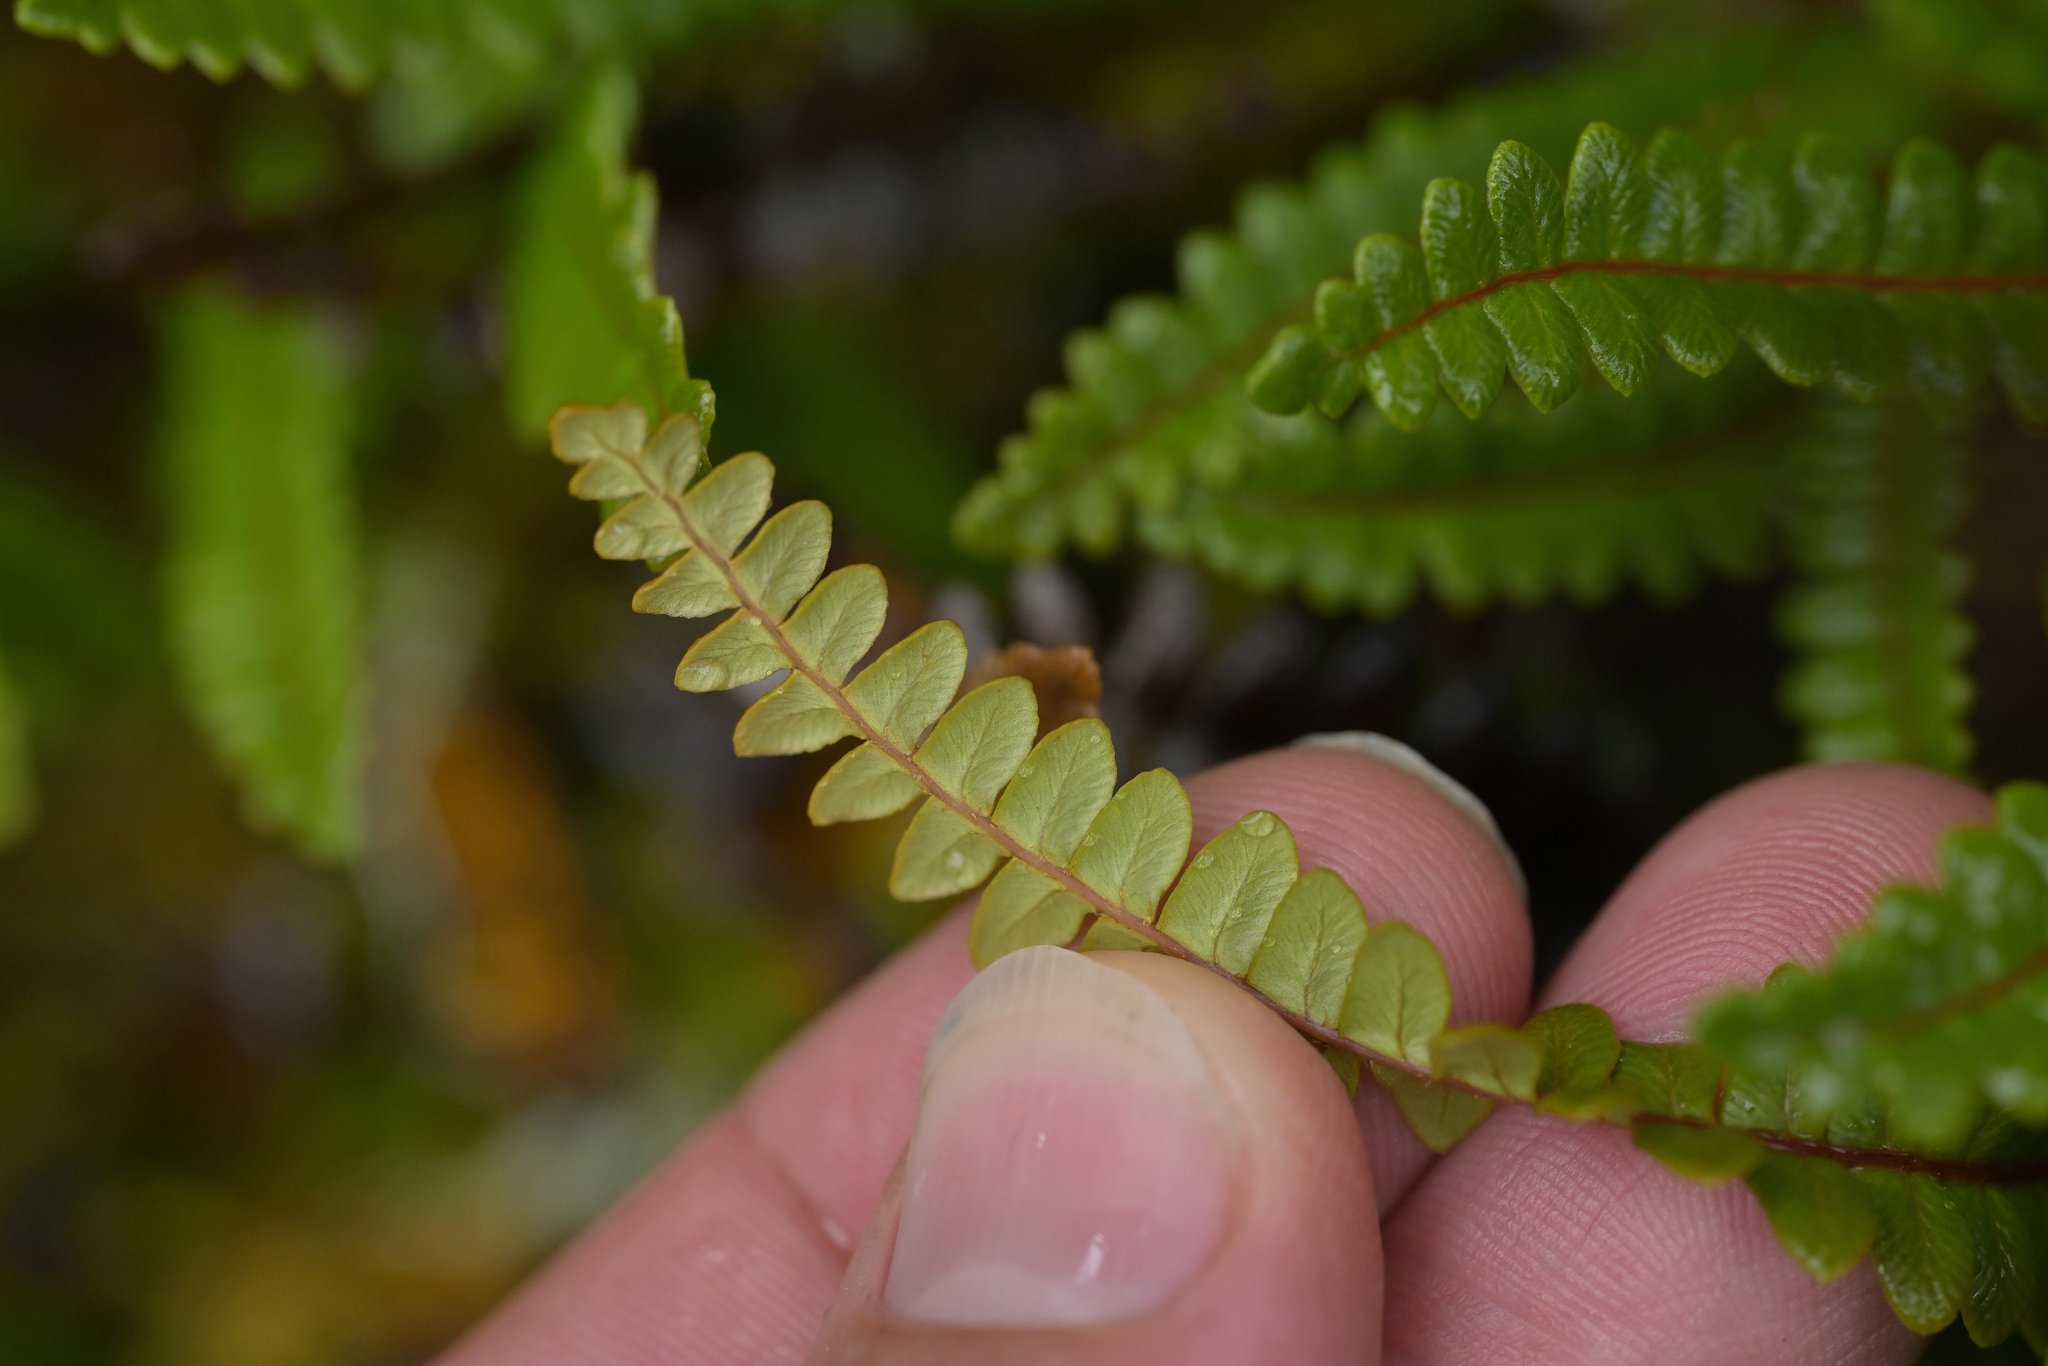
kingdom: Plantae
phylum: Tracheophyta
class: Polypodiopsida
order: Polypodiales
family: Blechnaceae
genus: Austroblechnum
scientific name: Austroblechnum penna-marina
